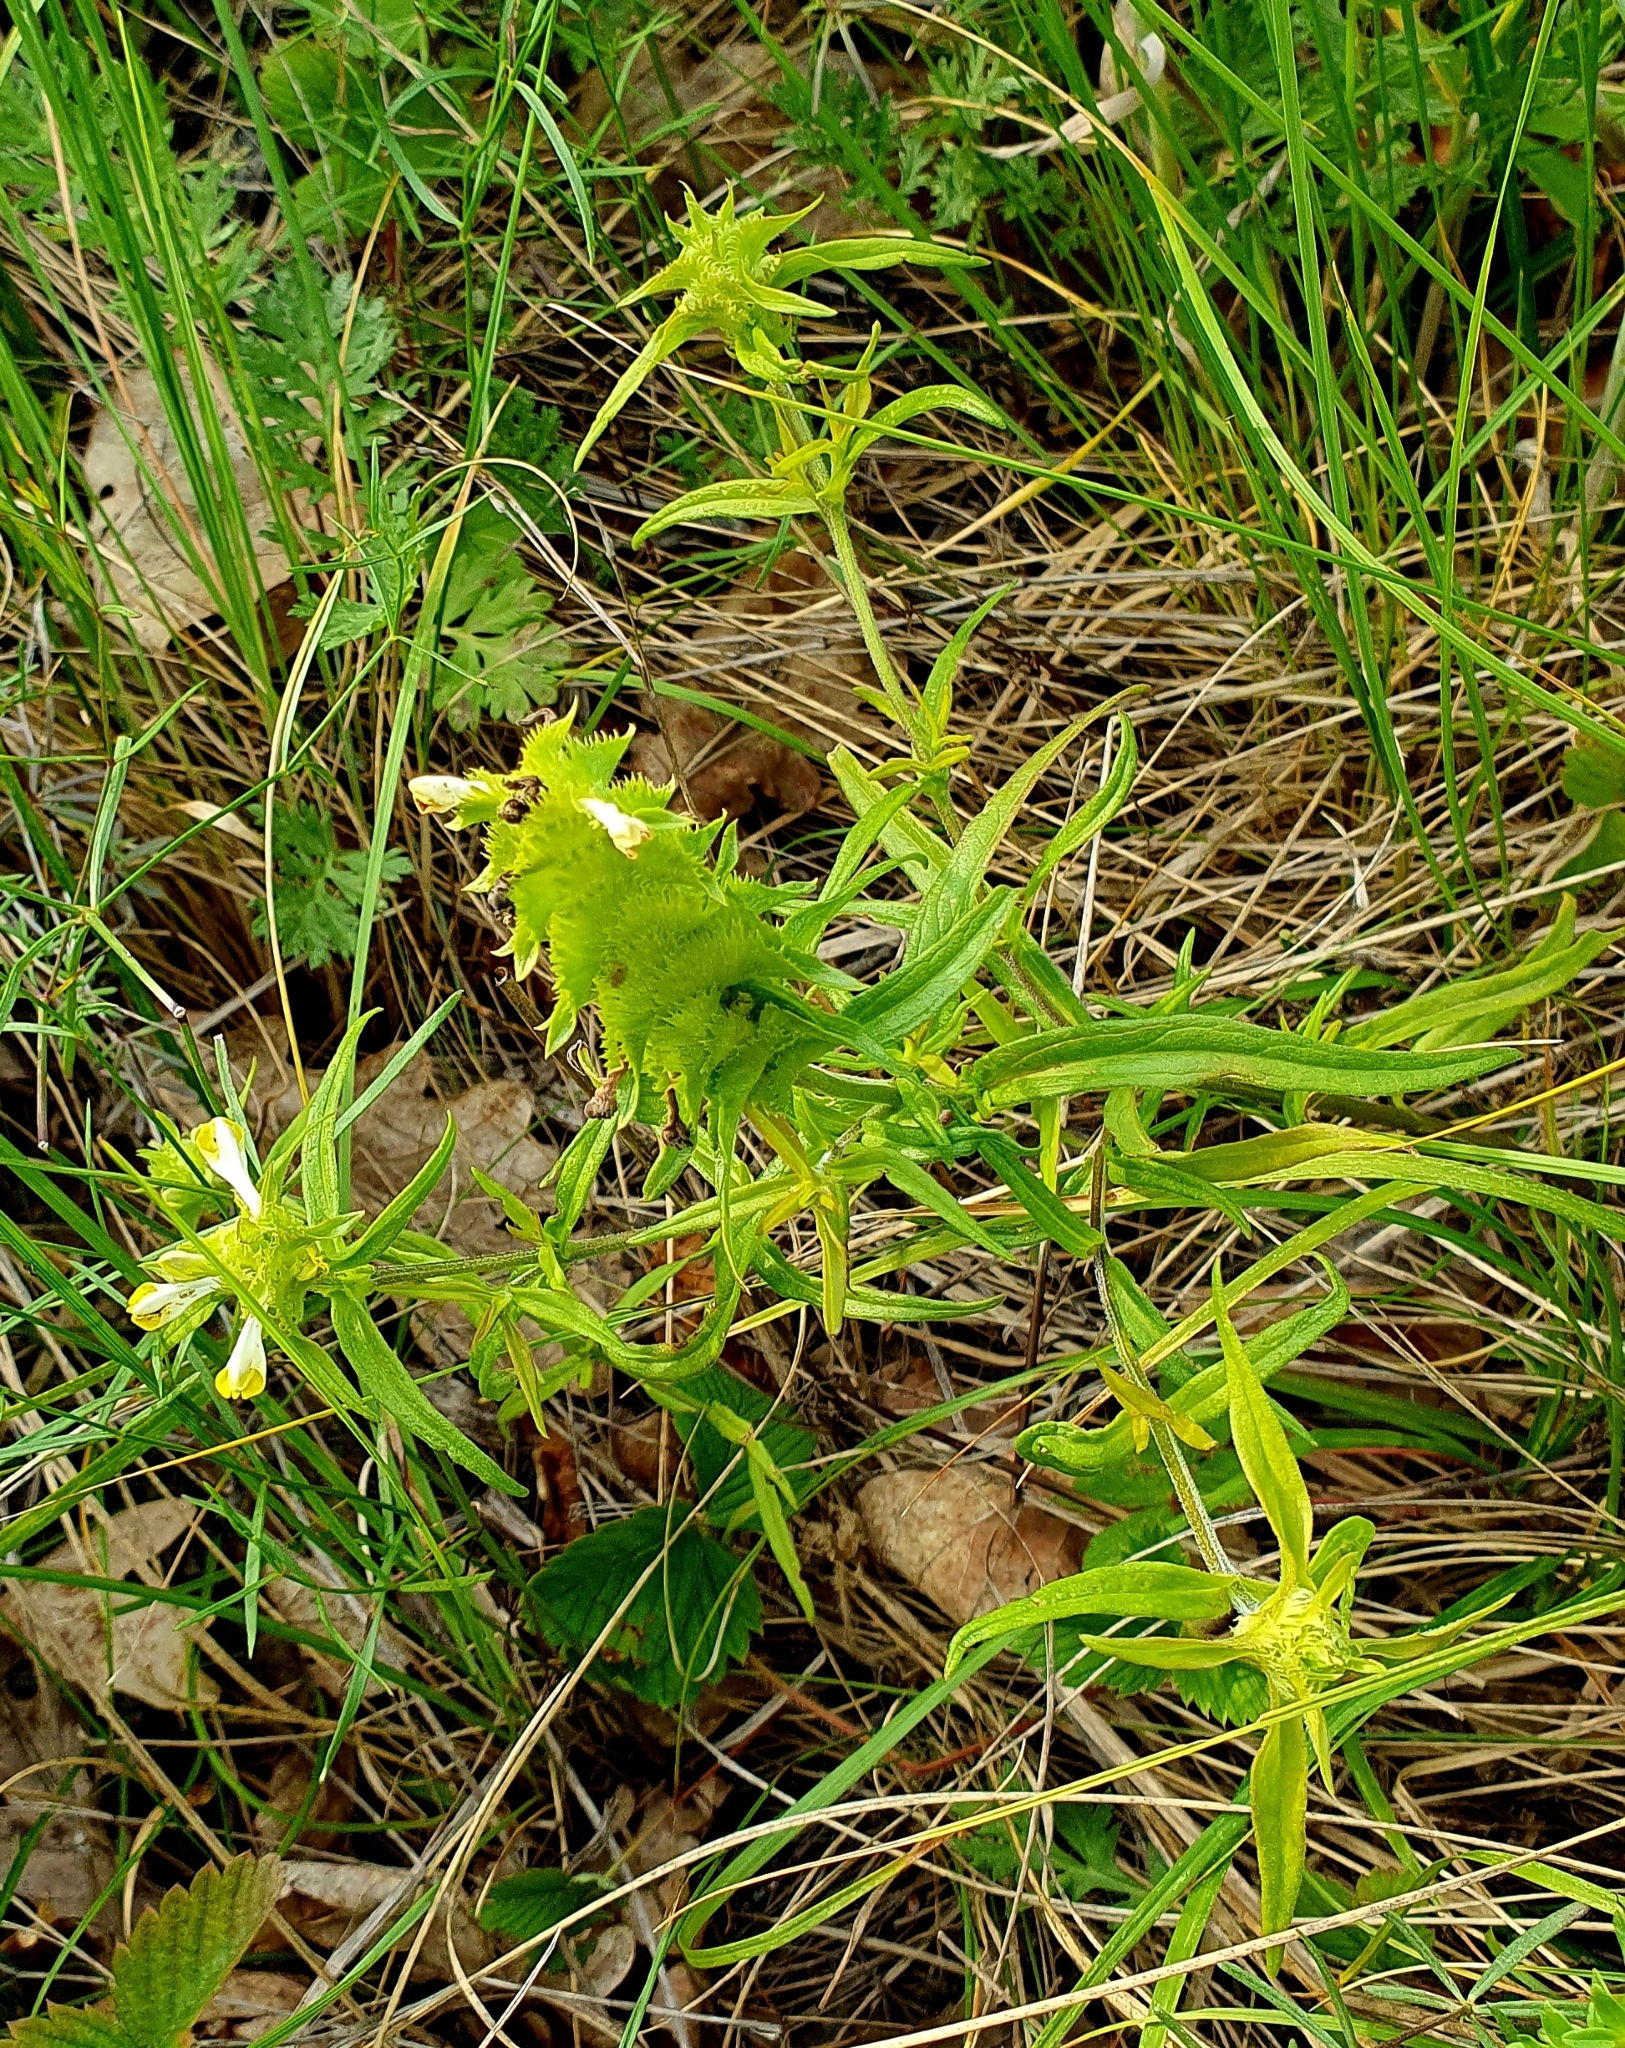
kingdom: Plantae
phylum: Tracheophyta
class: Magnoliopsida
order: Lamiales
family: Orobanchaceae
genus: Melampyrum
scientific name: Melampyrum cristatum
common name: Crested cow-wheat
